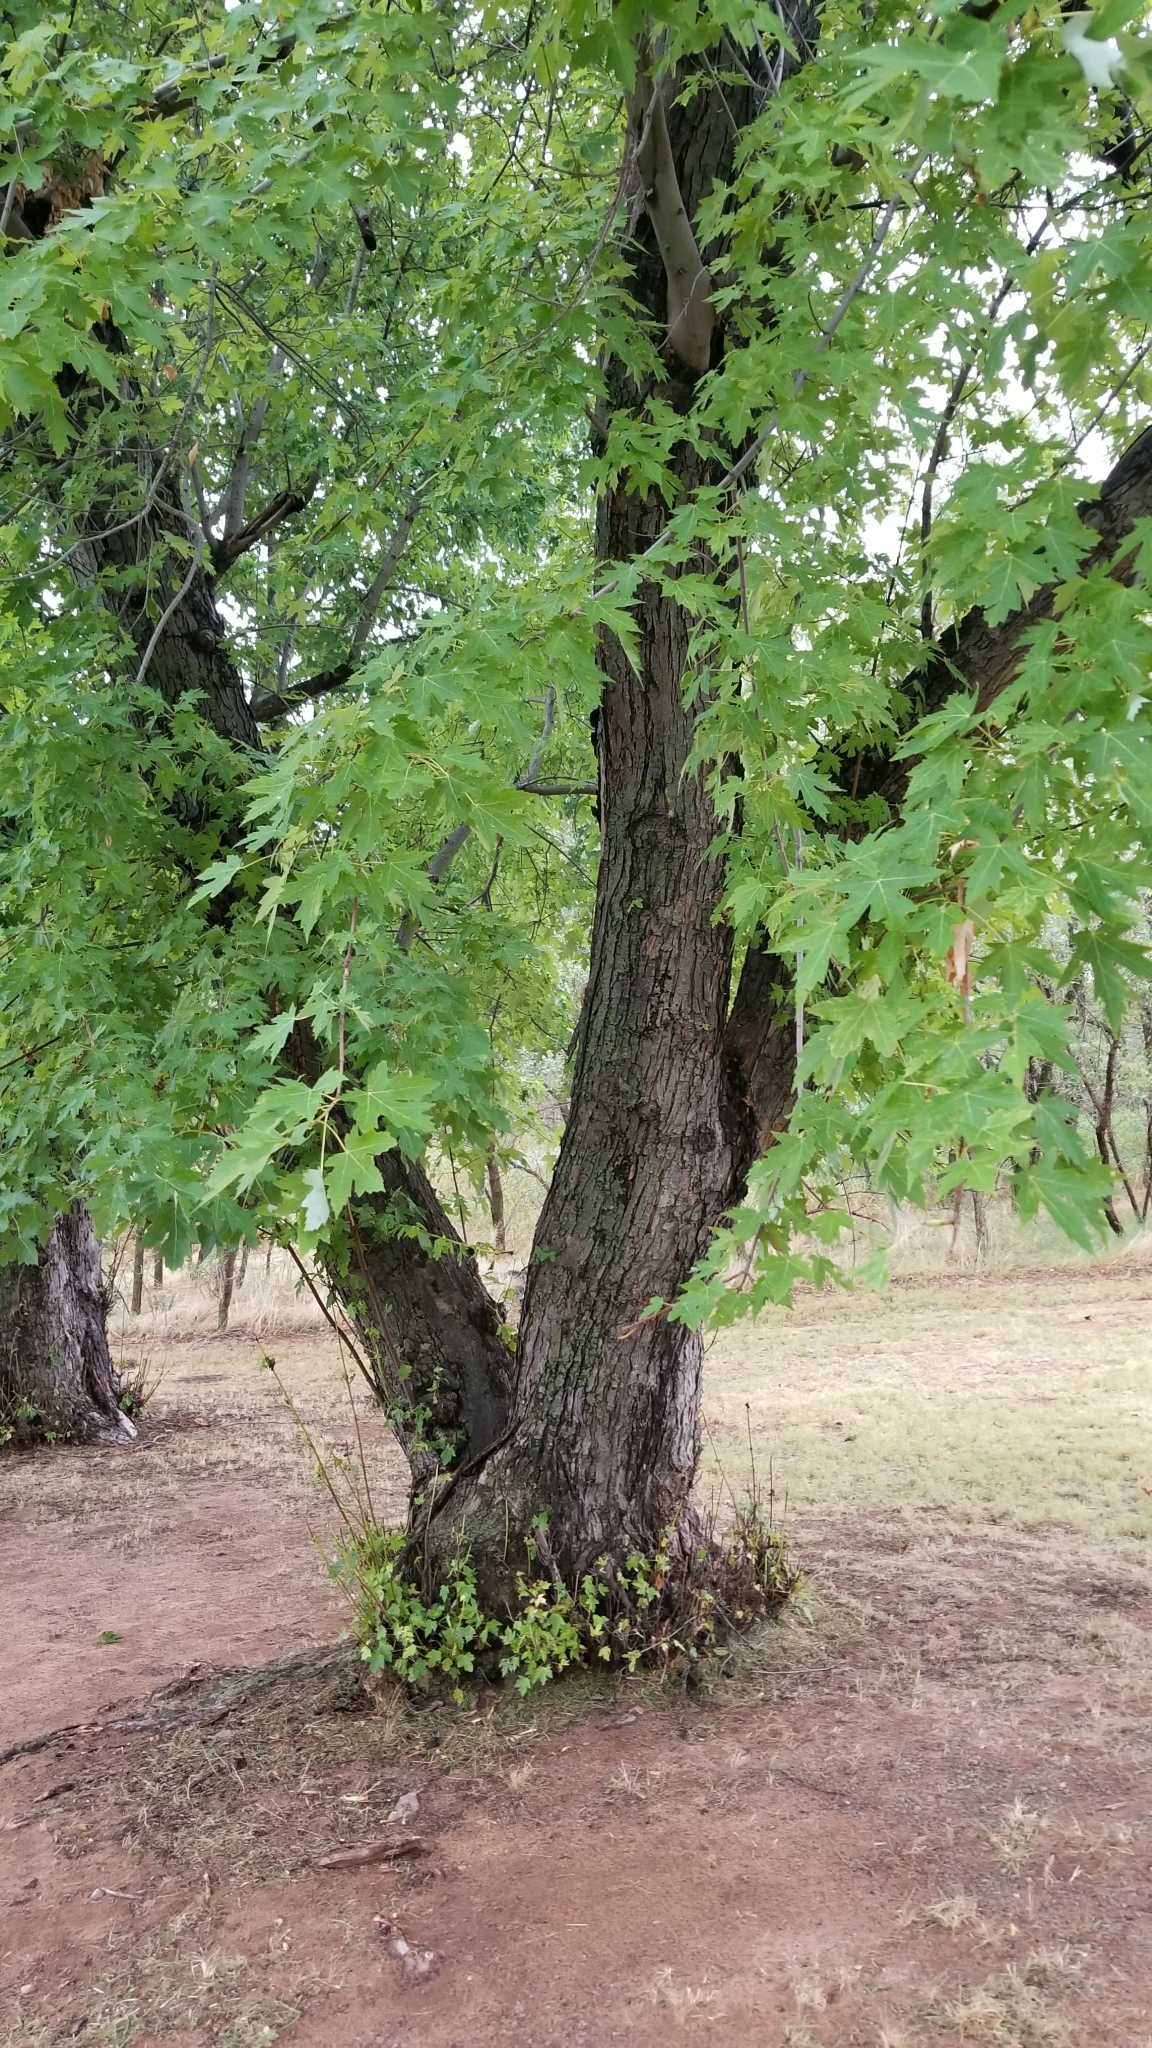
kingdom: Plantae
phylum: Tracheophyta
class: Magnoliopsida
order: Sapindales
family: Sapindaceae
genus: Acer
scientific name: Acer saccharinum
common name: Silver maple
